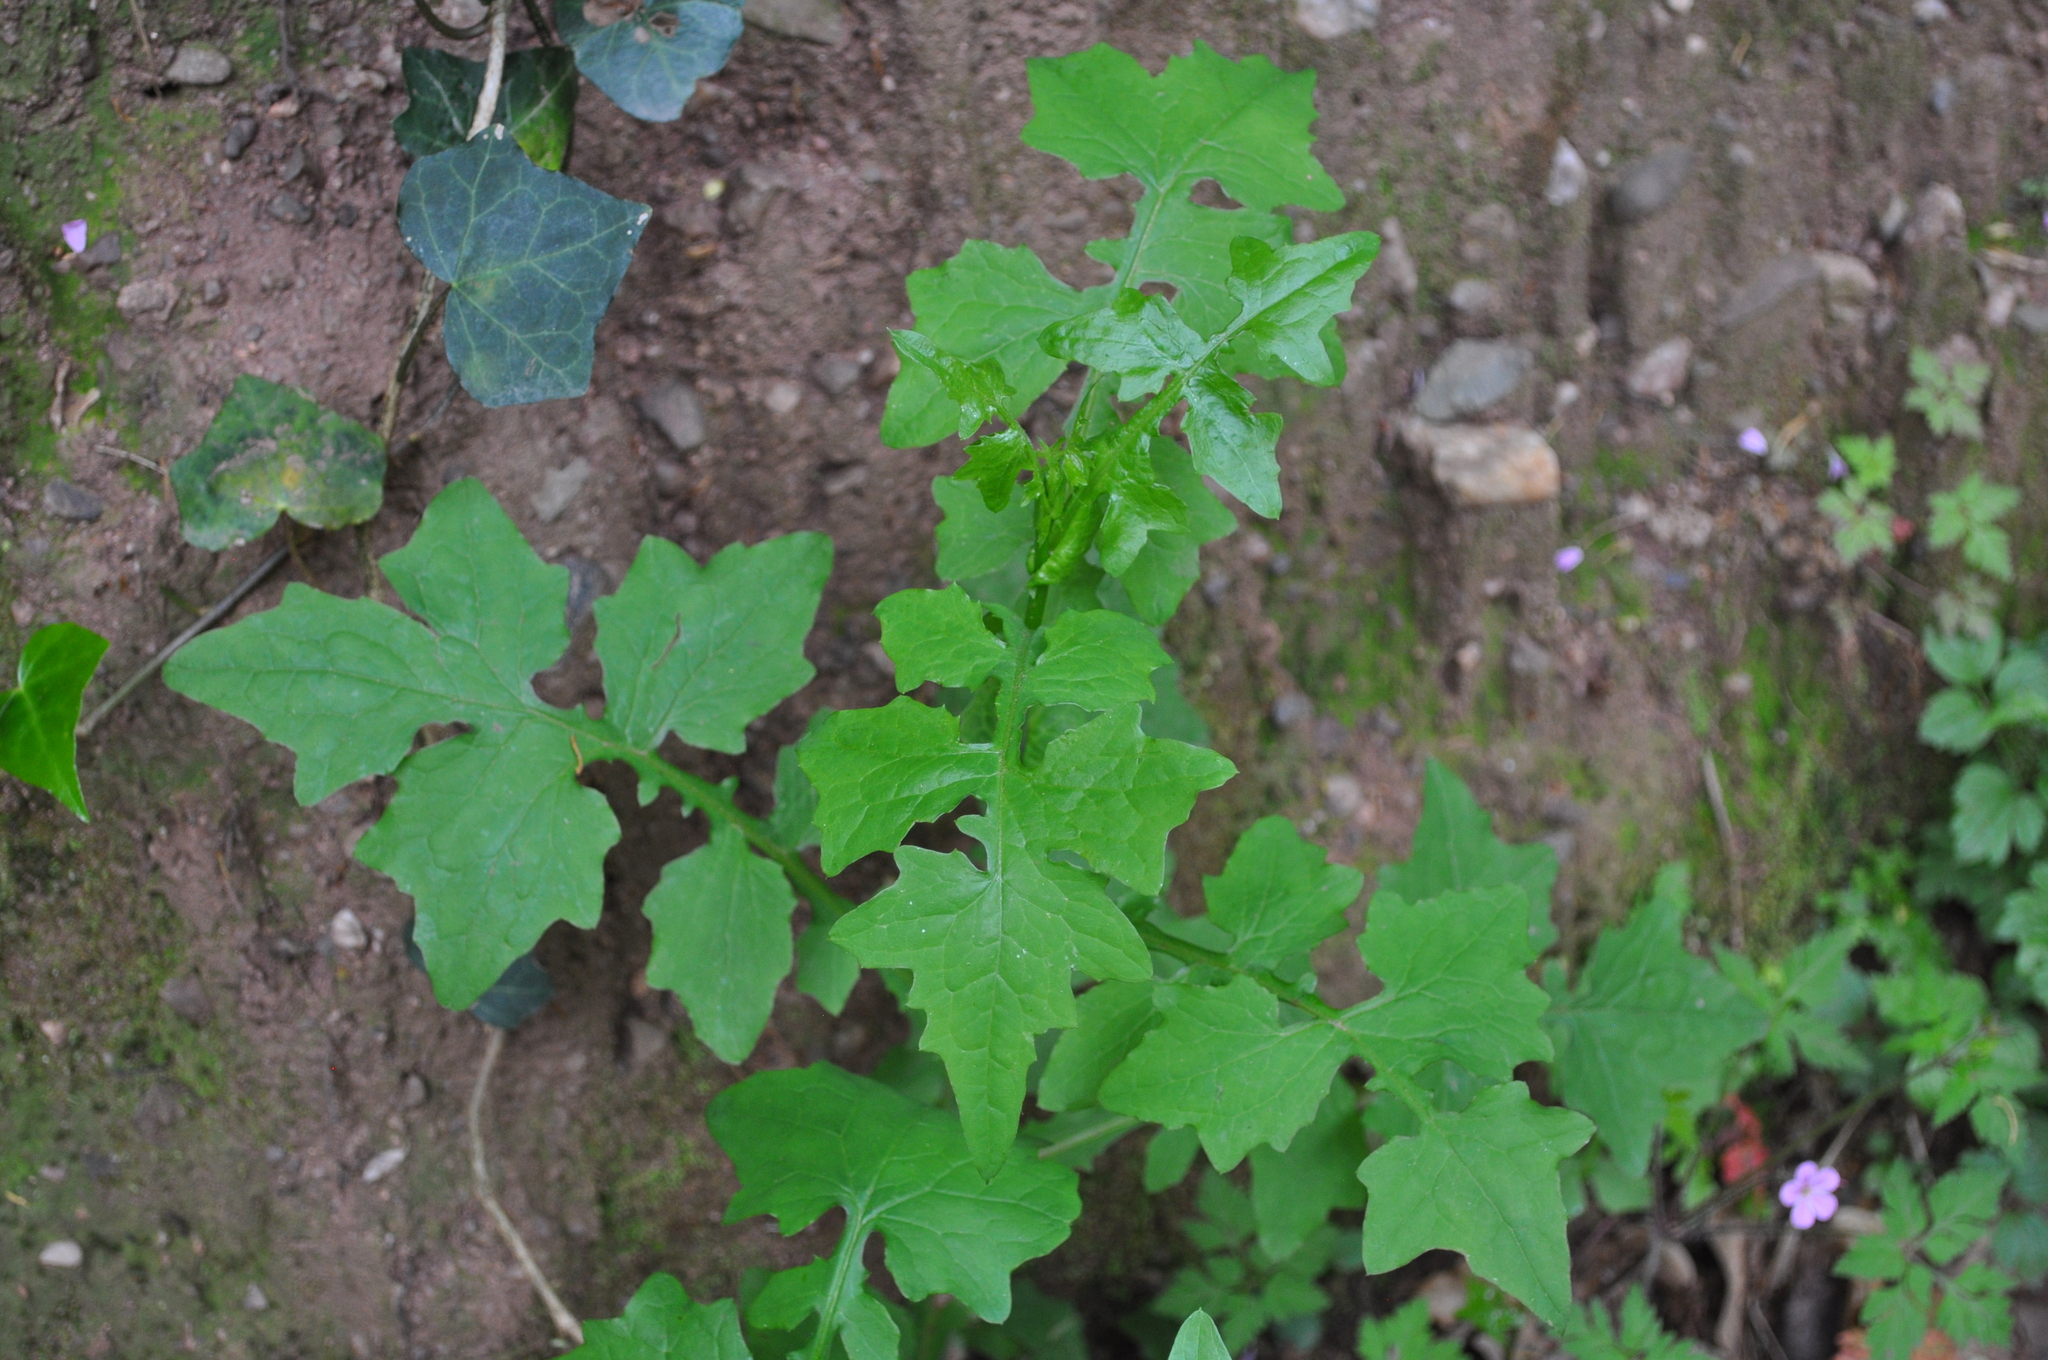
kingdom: Plantae
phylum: Tracheophyta
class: Magnoliopsida
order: Asterales
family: Asteraceae
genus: Mycelis
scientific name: Mycelis muralis
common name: Wall lettuce
